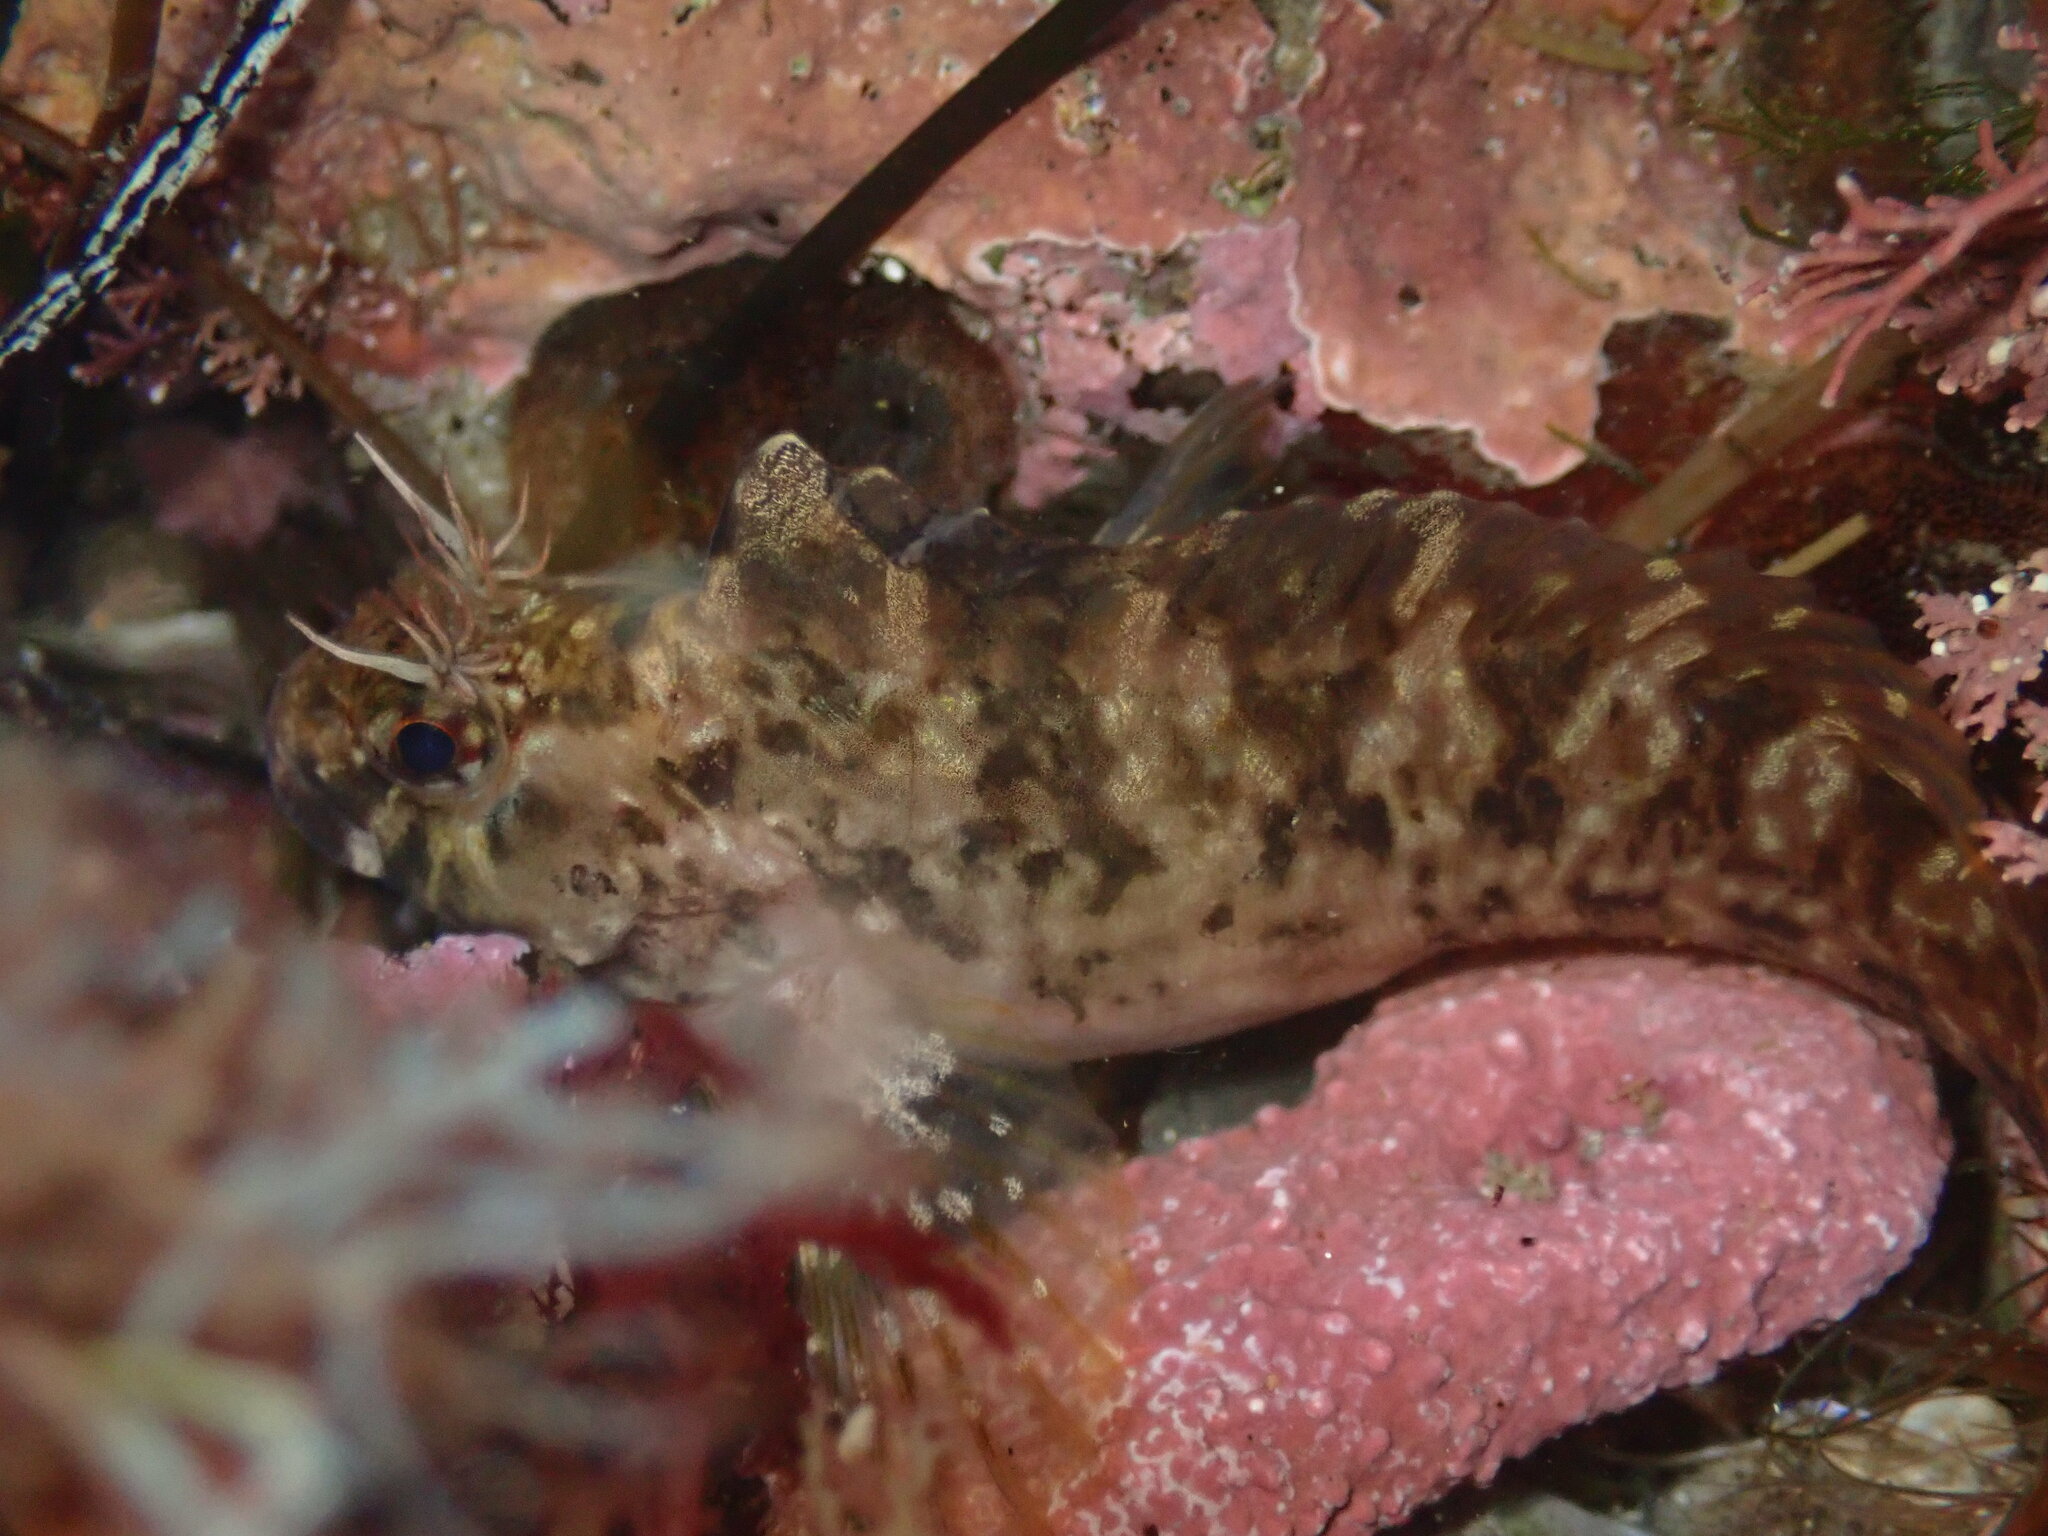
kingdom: Animalia
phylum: Chordata
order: Perciformes
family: Blenniidae
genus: Hypsoblennius
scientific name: Hypsoblennius gilberti
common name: Notchbrow blenny
